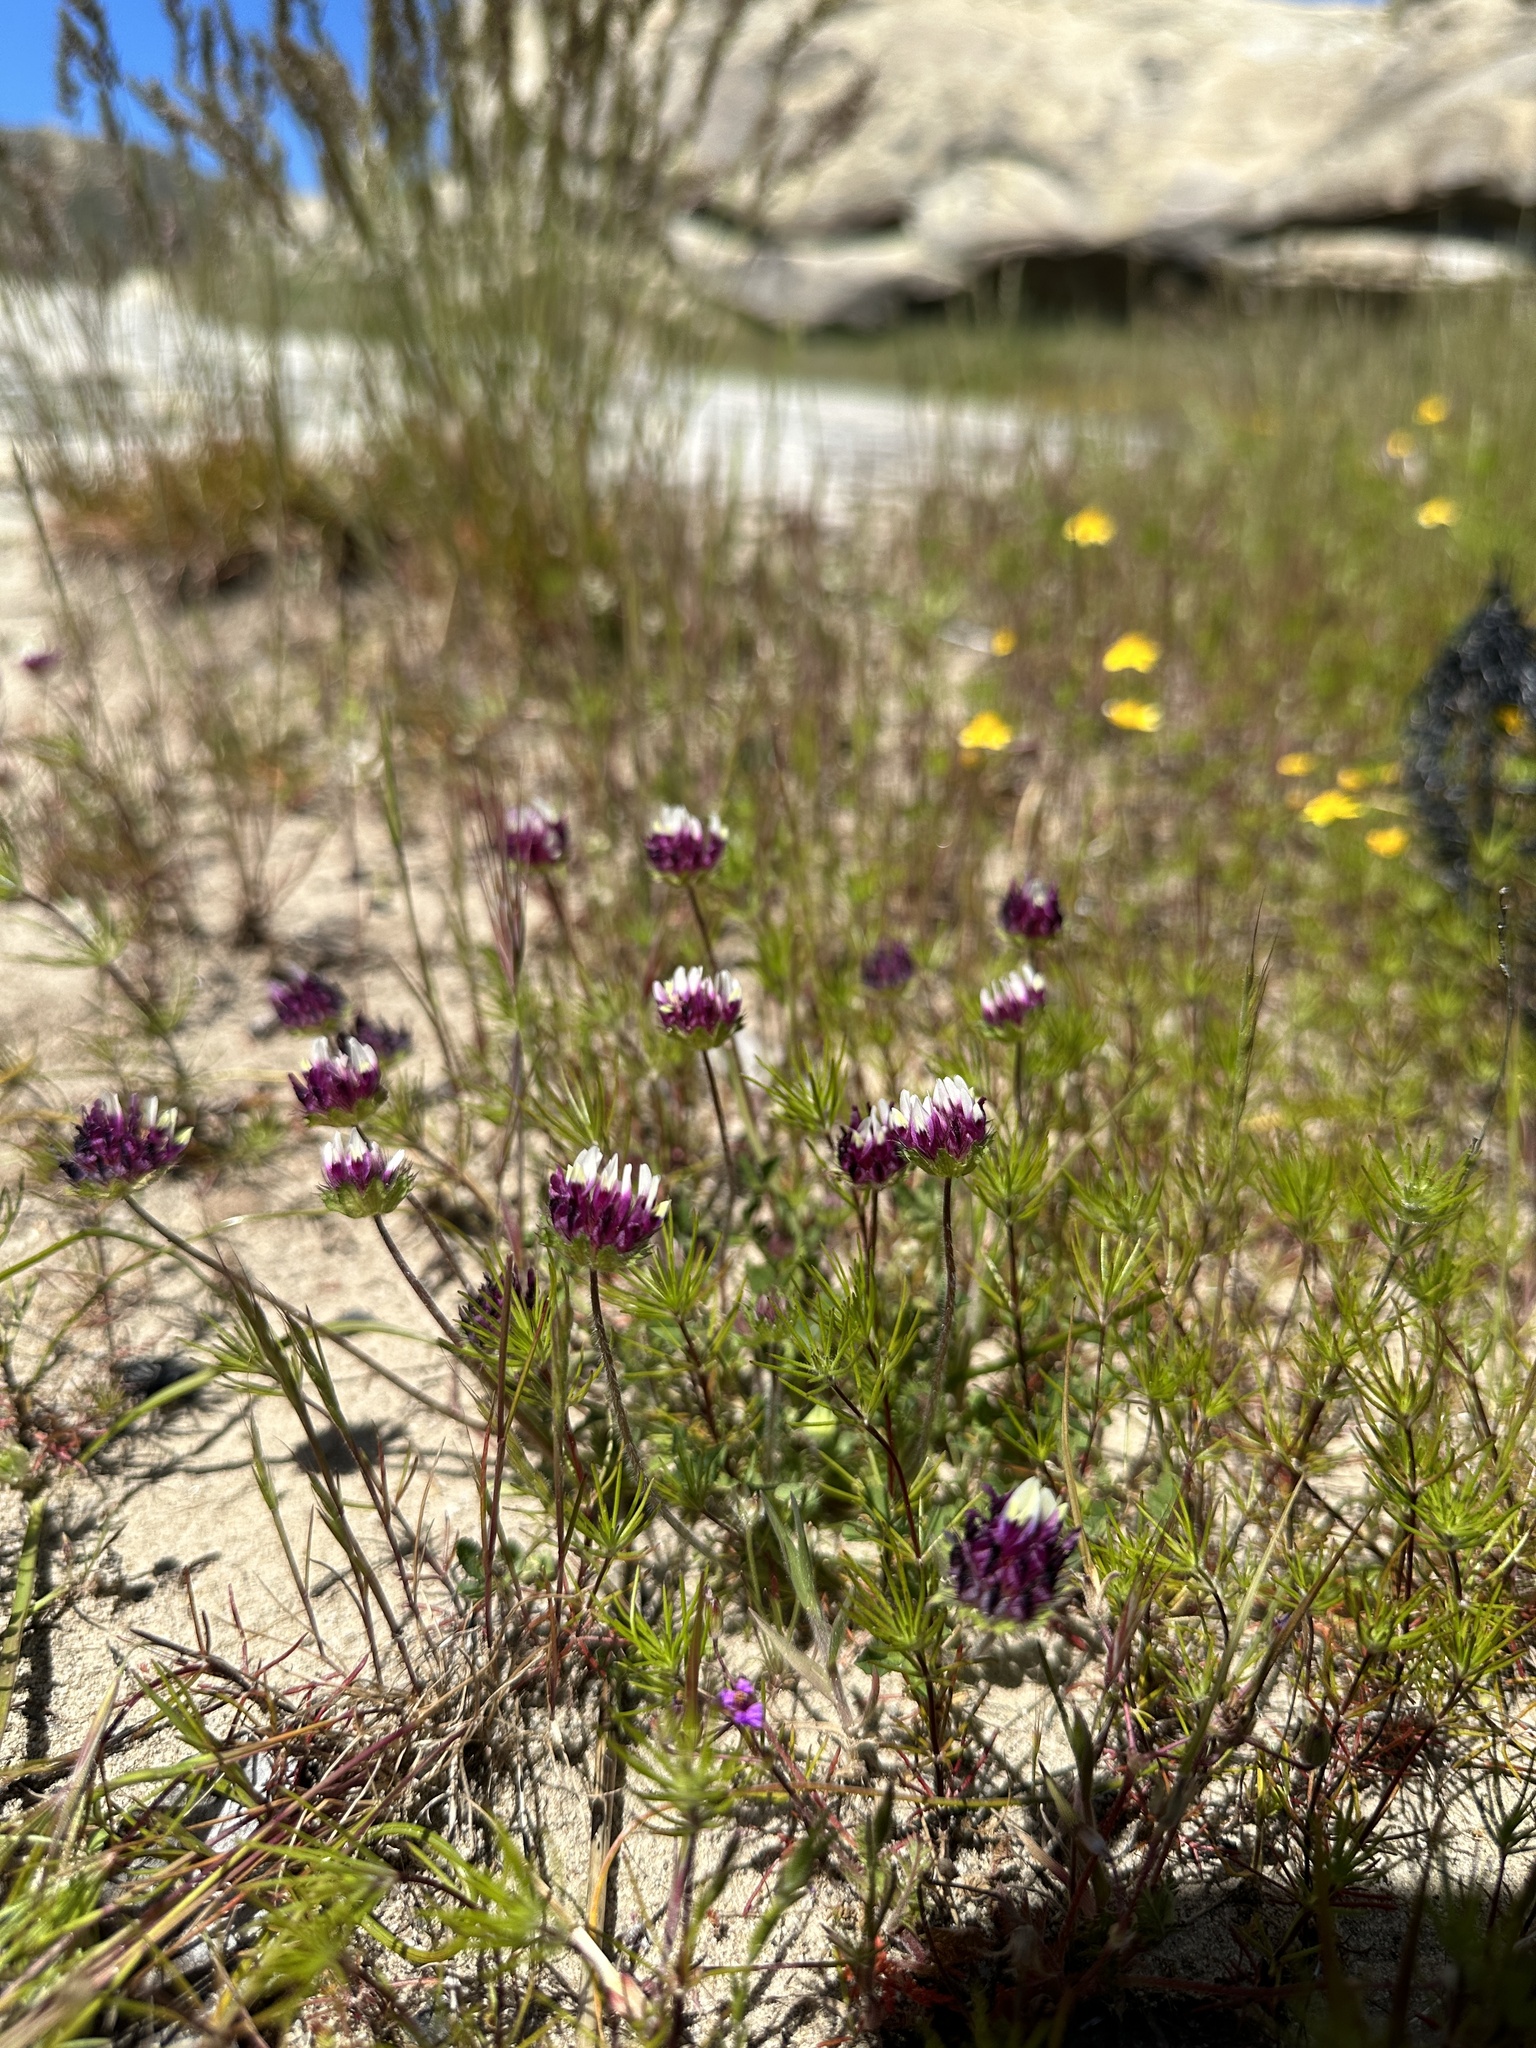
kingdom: Plantae
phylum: Tracheophyta
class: Magnoliopsida
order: Fabales
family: Fabaceae
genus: Trifolium
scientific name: Trifolium barbigerum
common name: Bearded clover
